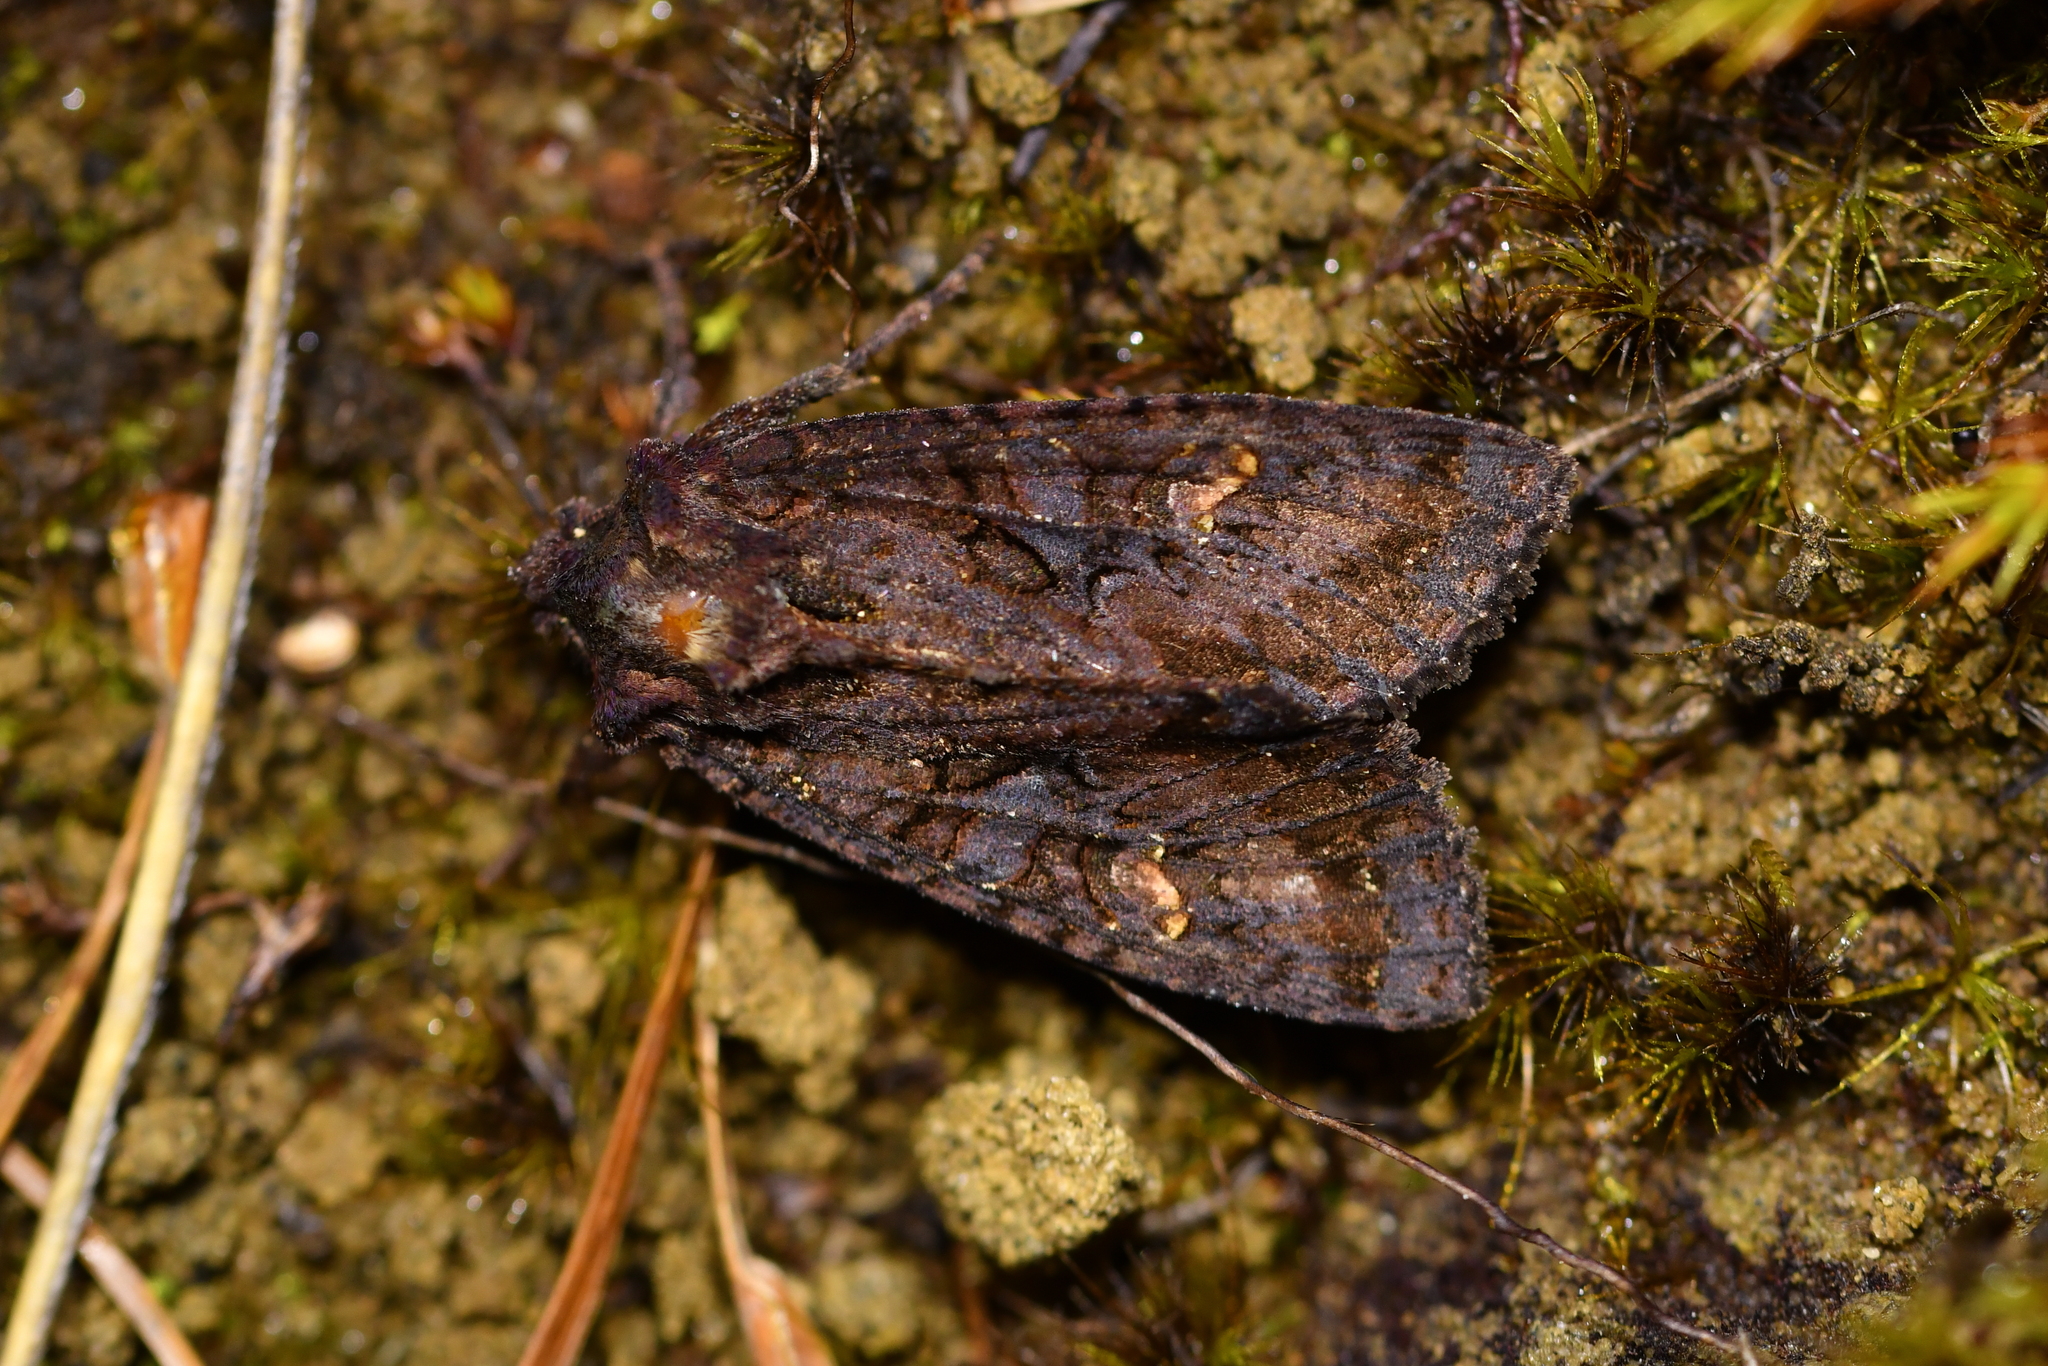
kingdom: Animalia
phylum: Arthropoda
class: Insecta
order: Lepidoptera
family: Noctuidae
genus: Meterana
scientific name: Meterana dotata
